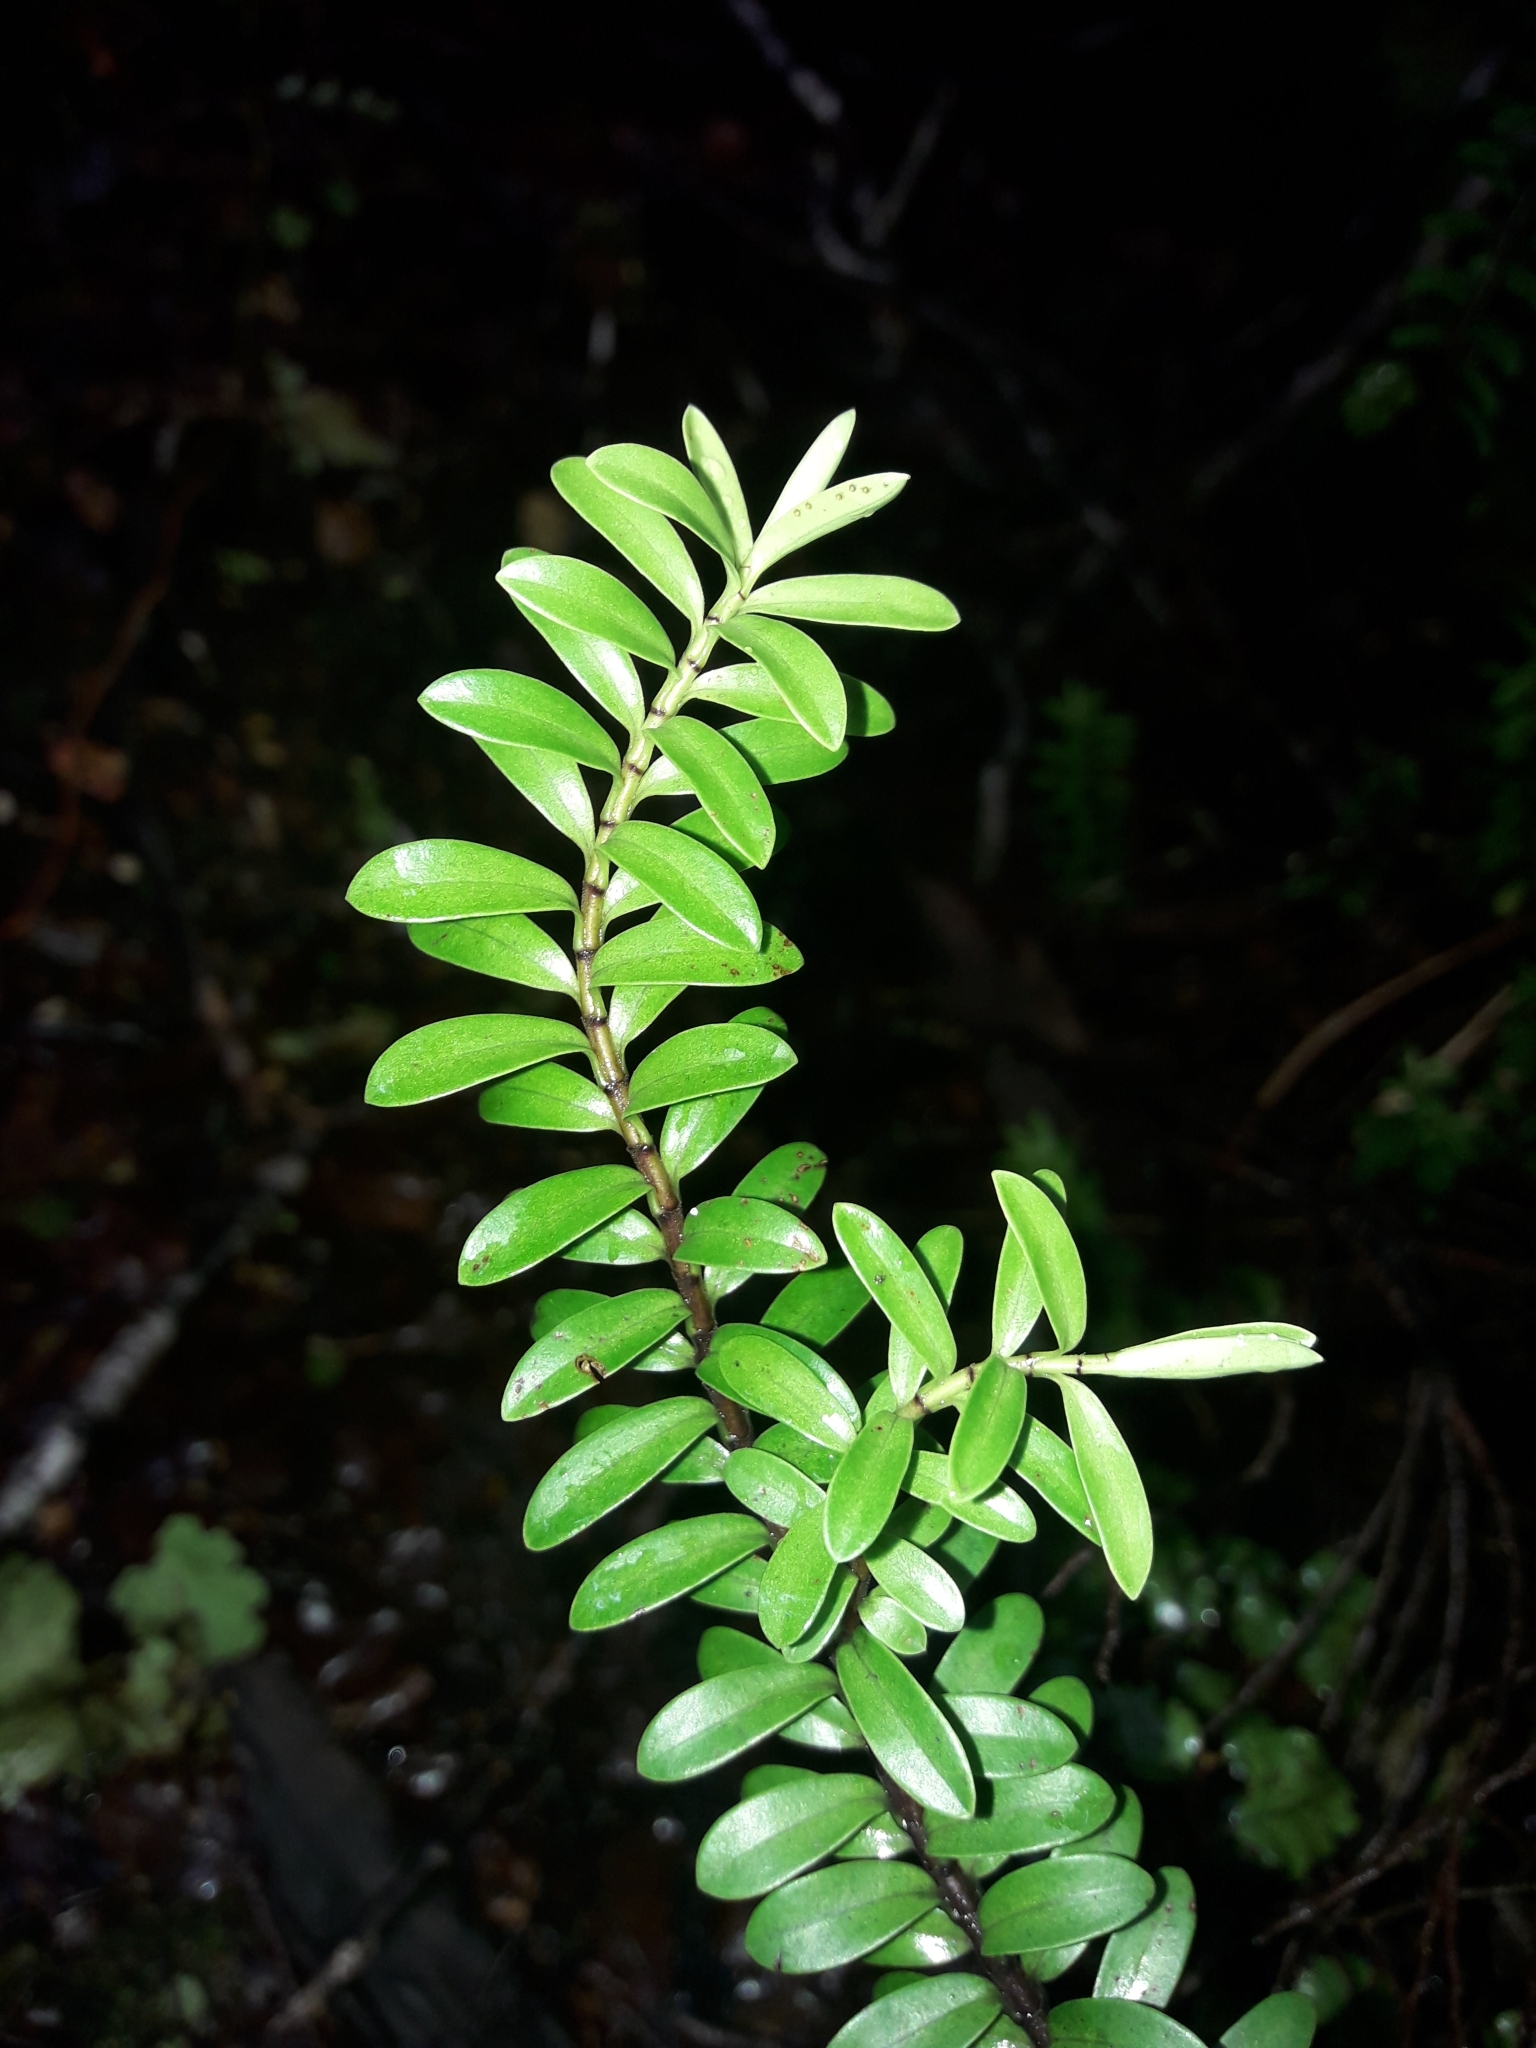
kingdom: Plantae
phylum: Tracheophyta
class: Magnoliopsida
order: Lamiales
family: Plantaginaceae
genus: Veronica
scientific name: Veronica vernicosa
